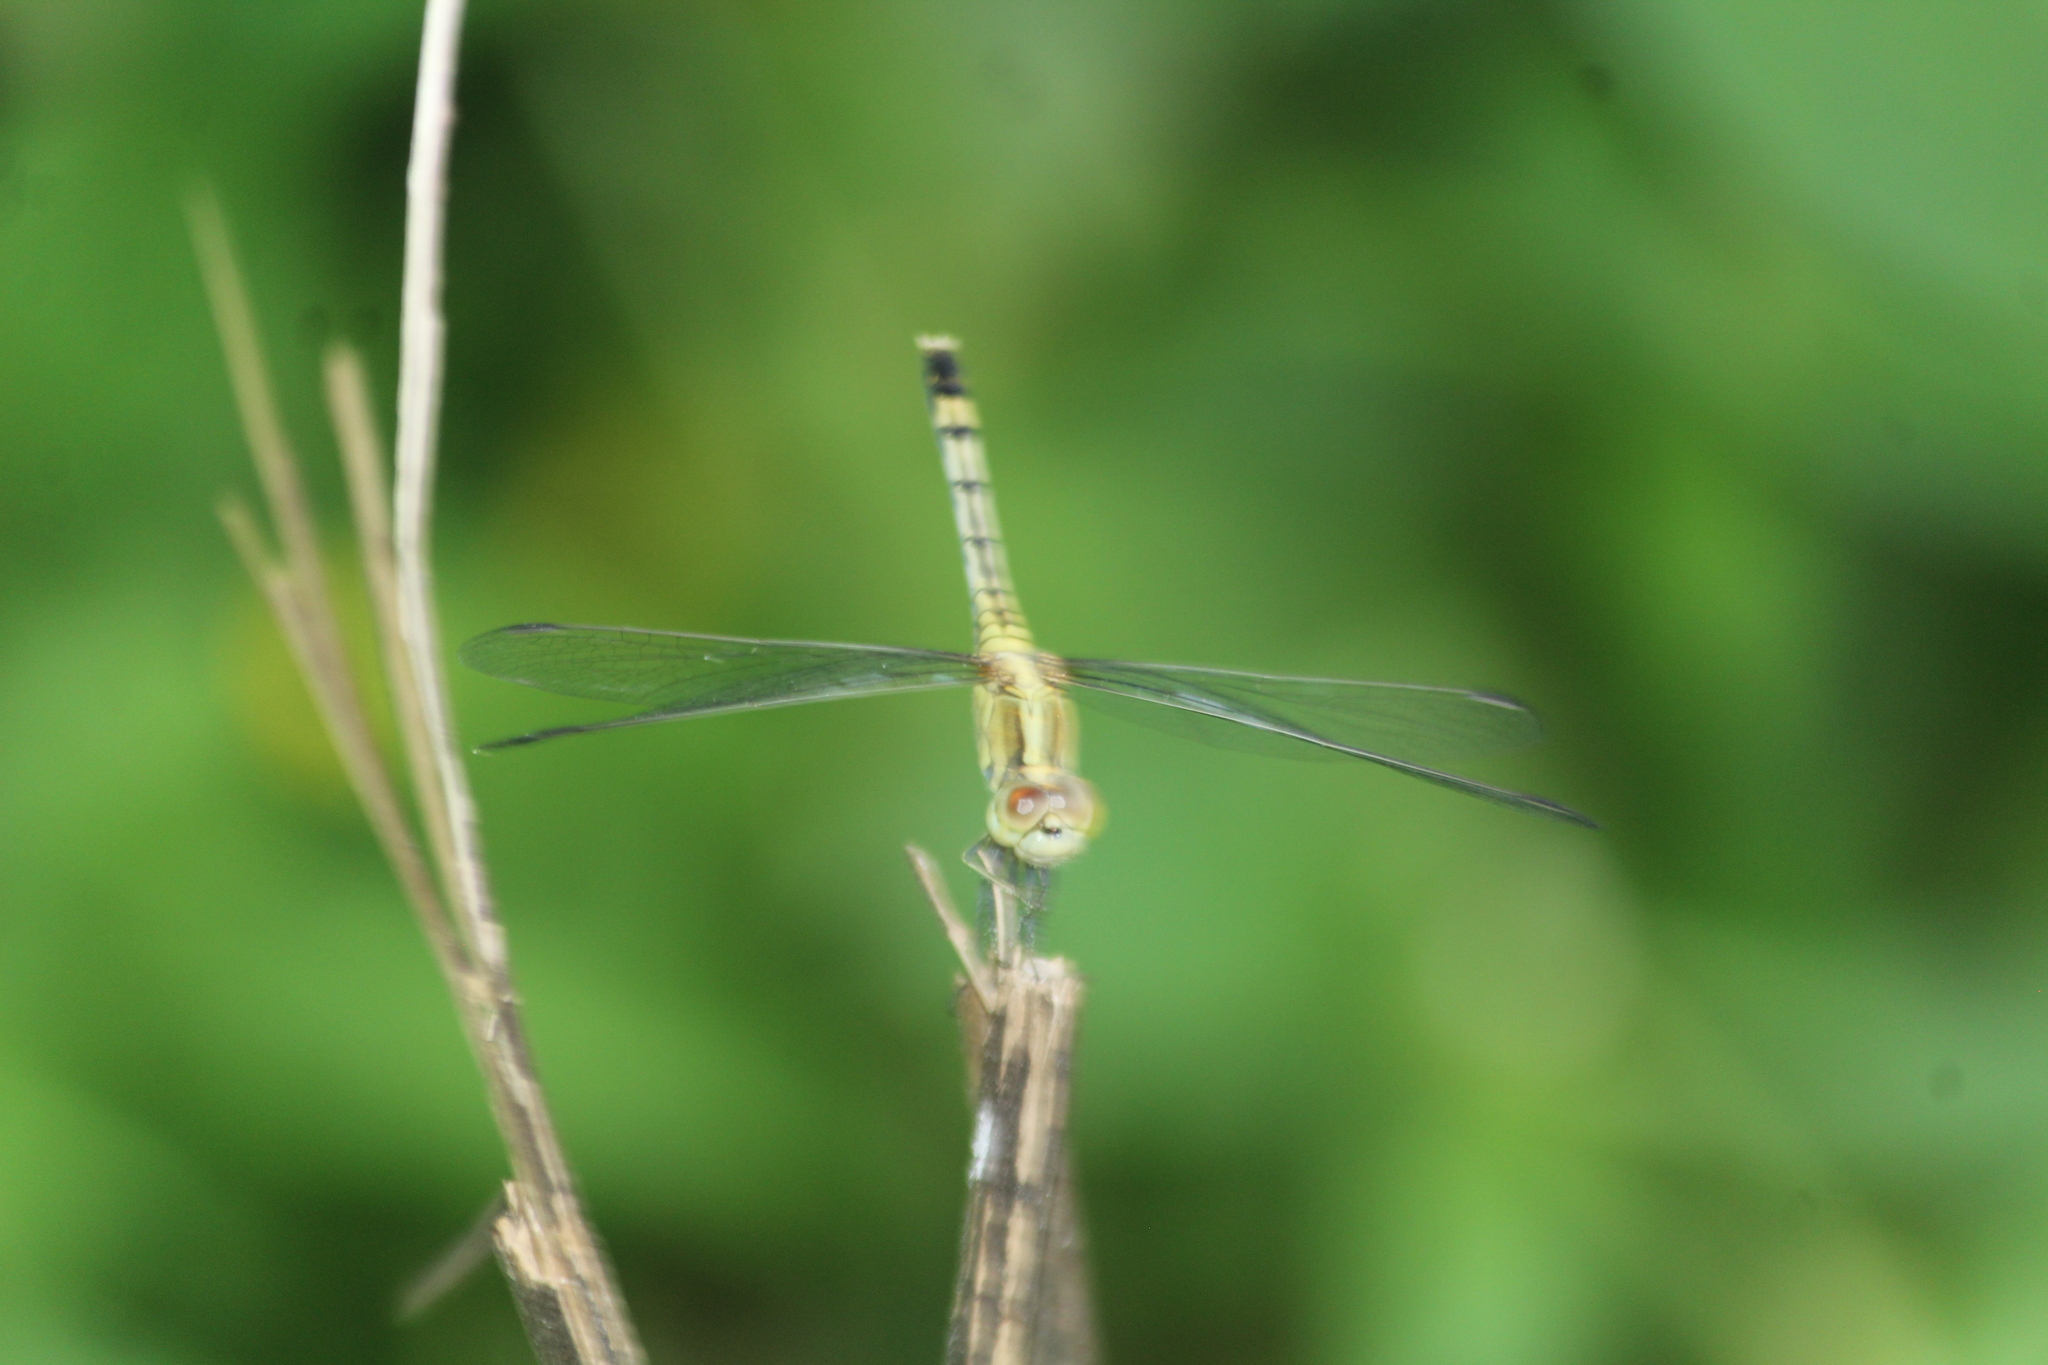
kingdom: Animalia
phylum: Arthropoda
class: Insecta
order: Odonata
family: Libellulidae
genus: Diplacodes
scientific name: Diplacodes trivialis
